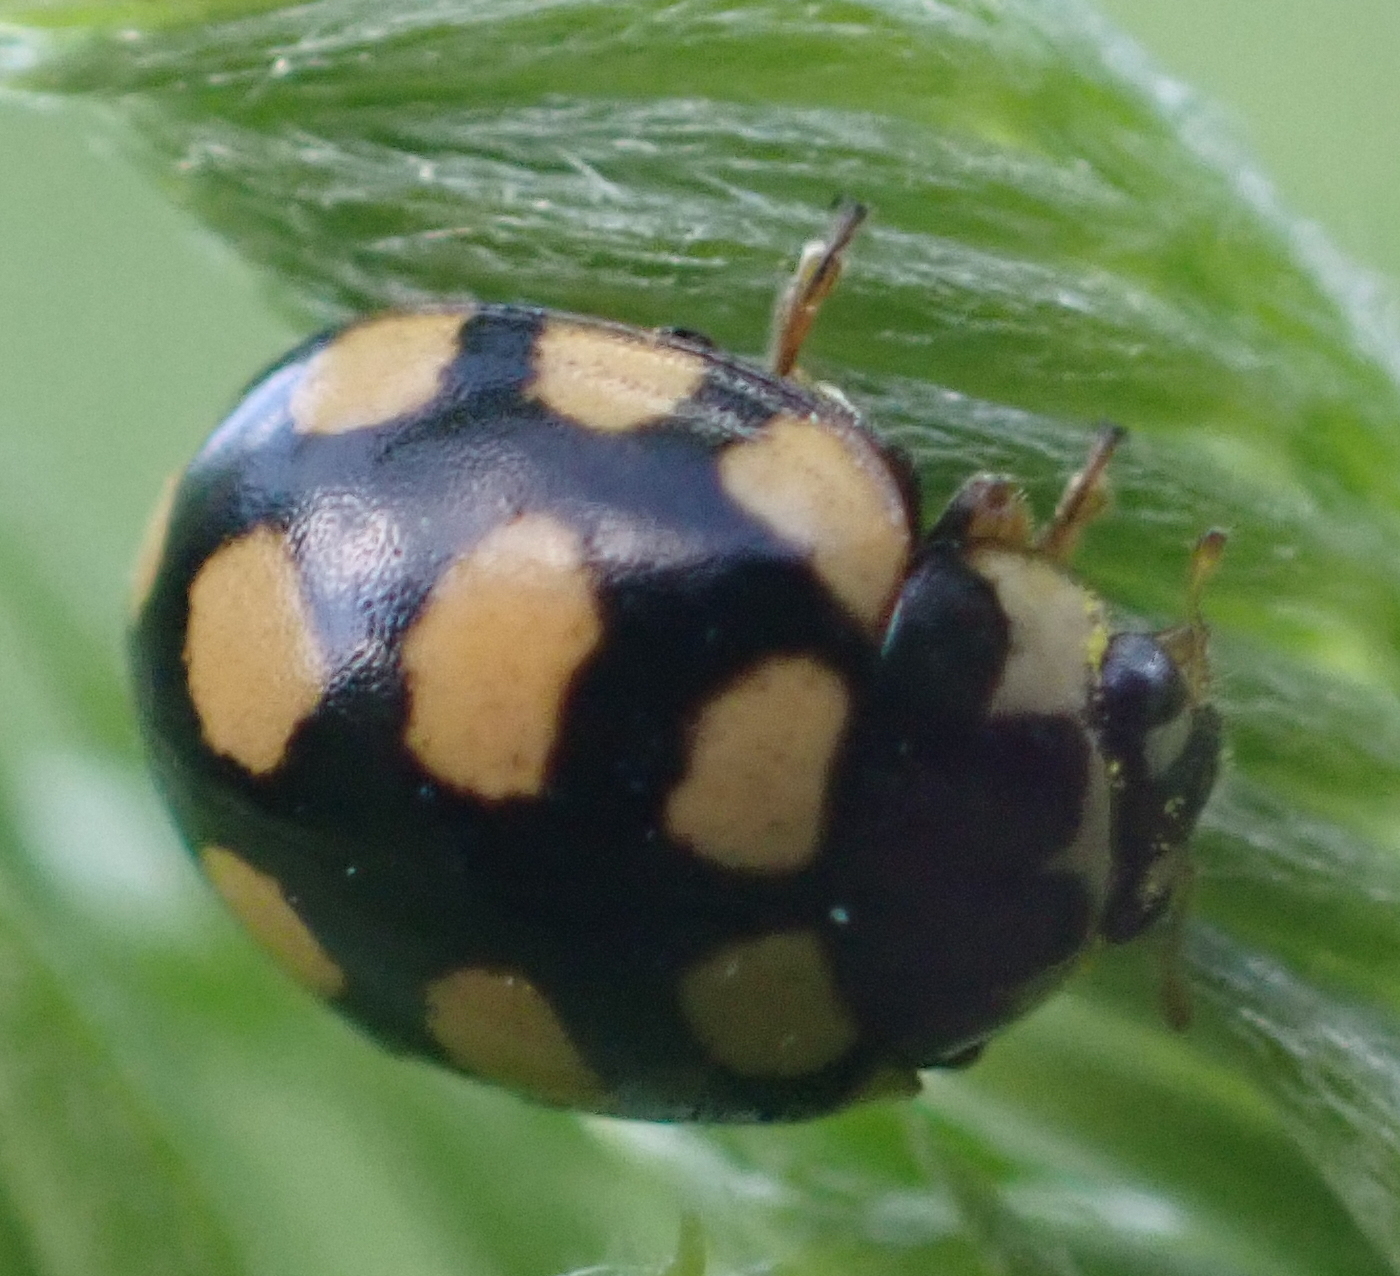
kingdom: Animalia
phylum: Arthropoda
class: Insecta
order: Coleoptera
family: Coccinellidae
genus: Coccinula
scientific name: Coccinula quatuordecimpustulata
